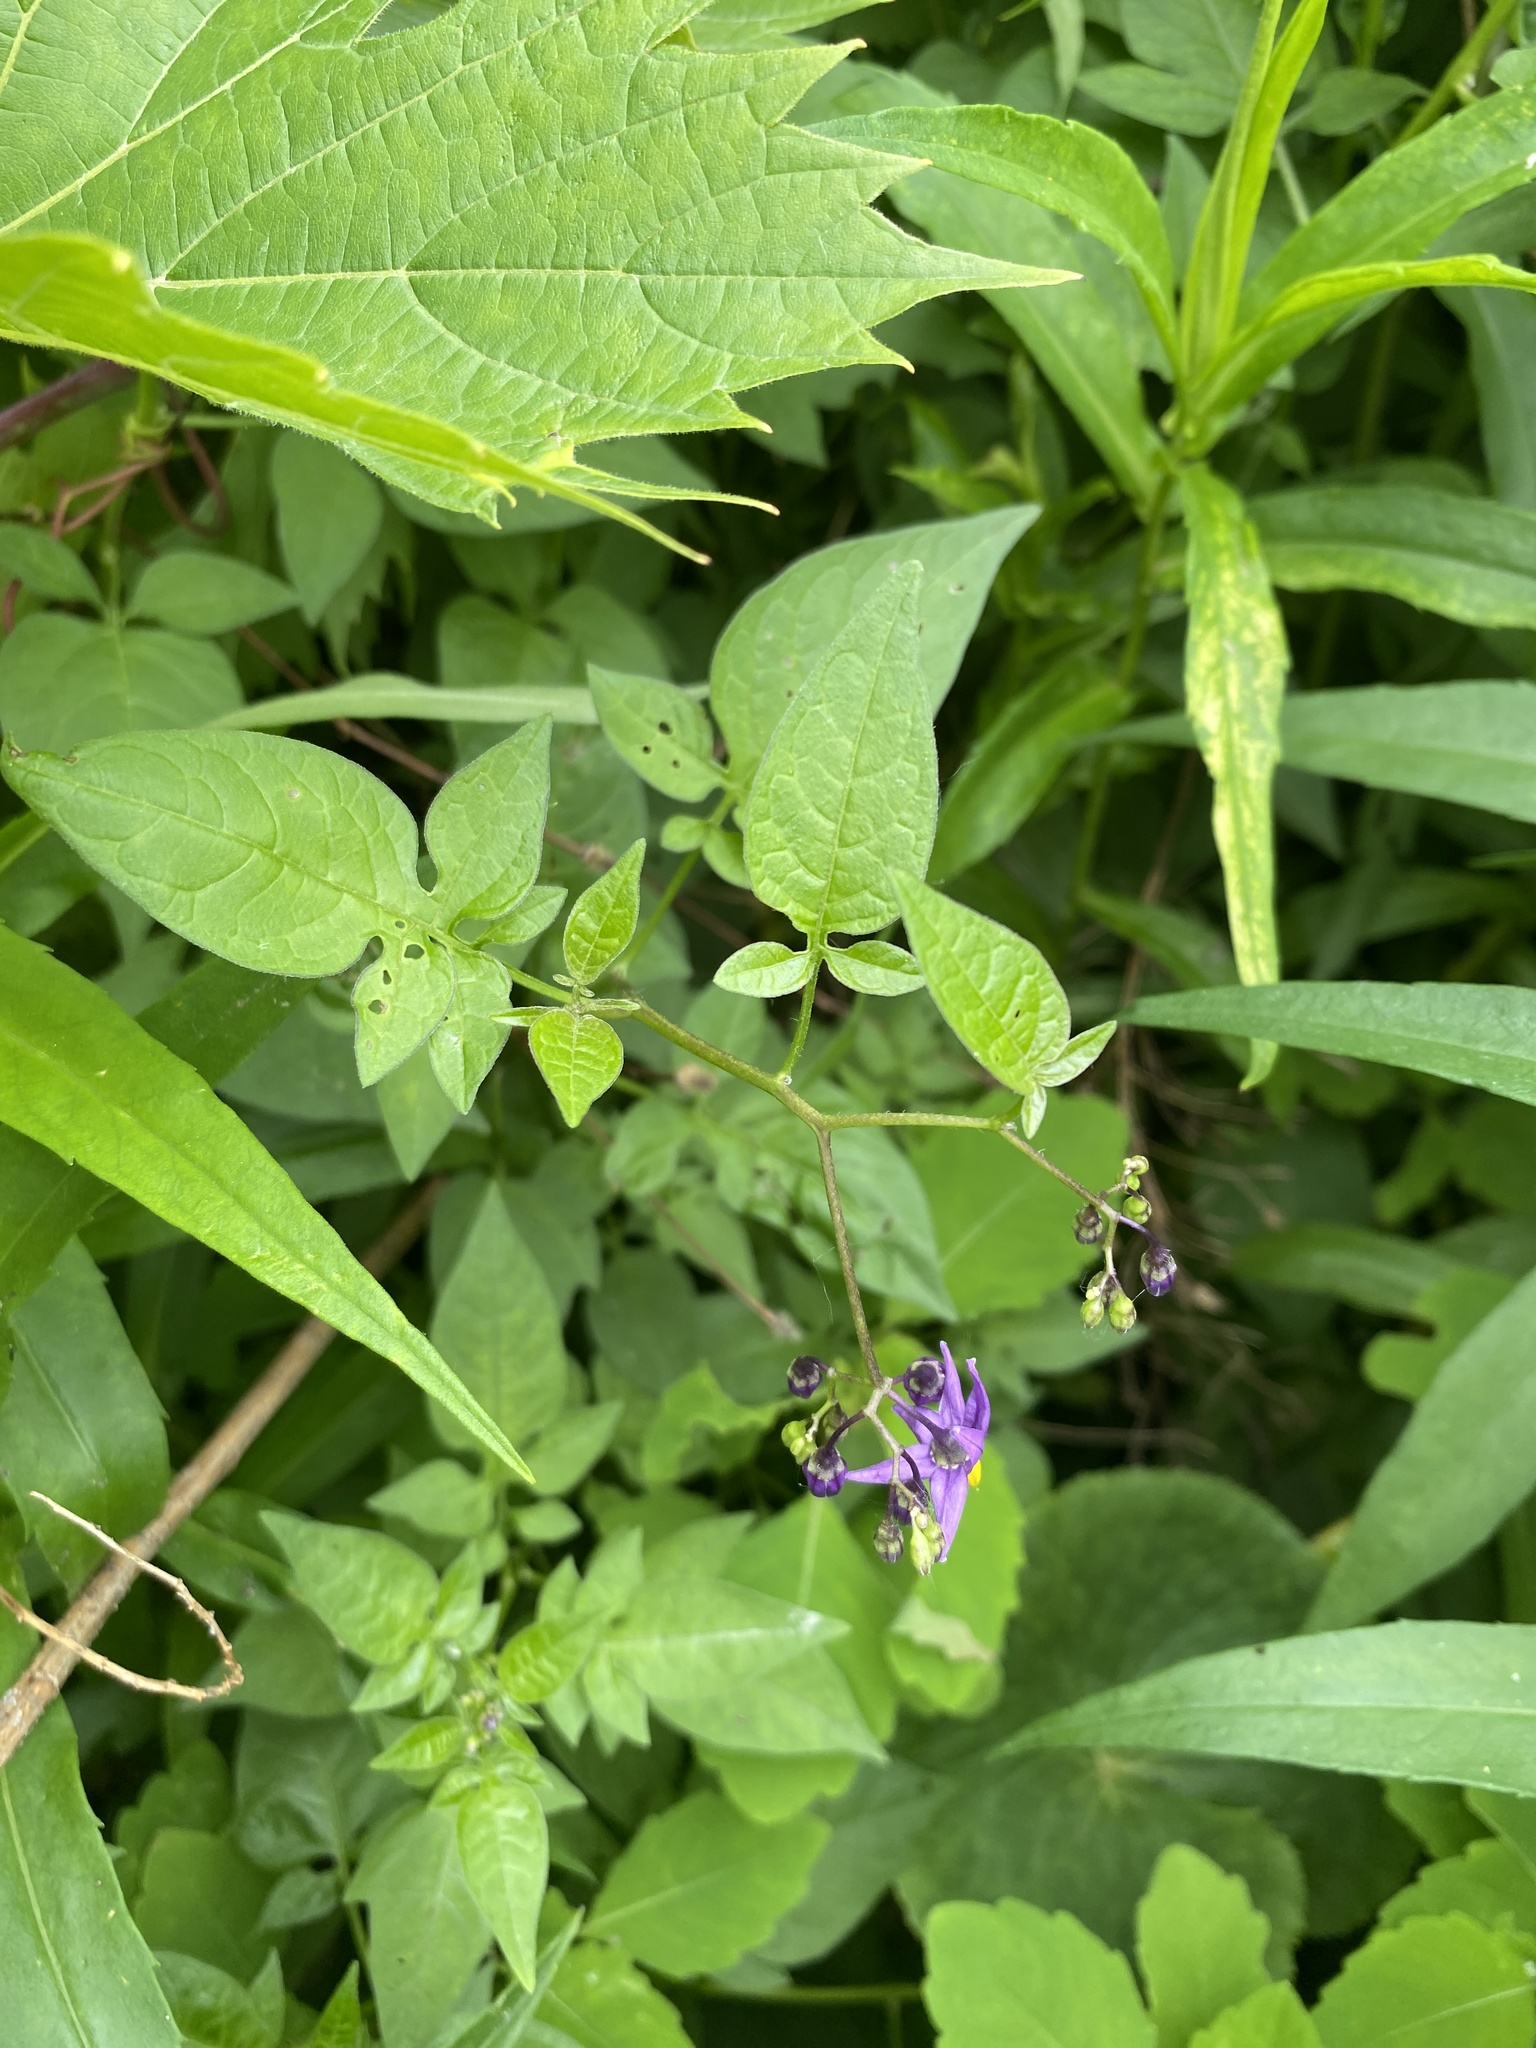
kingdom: Plantae
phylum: Tracheophyta
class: Magnoliopsida
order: Solanales
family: Solanaceae
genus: Solanum
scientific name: Solanum dulcamara
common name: Climbing nightshade
